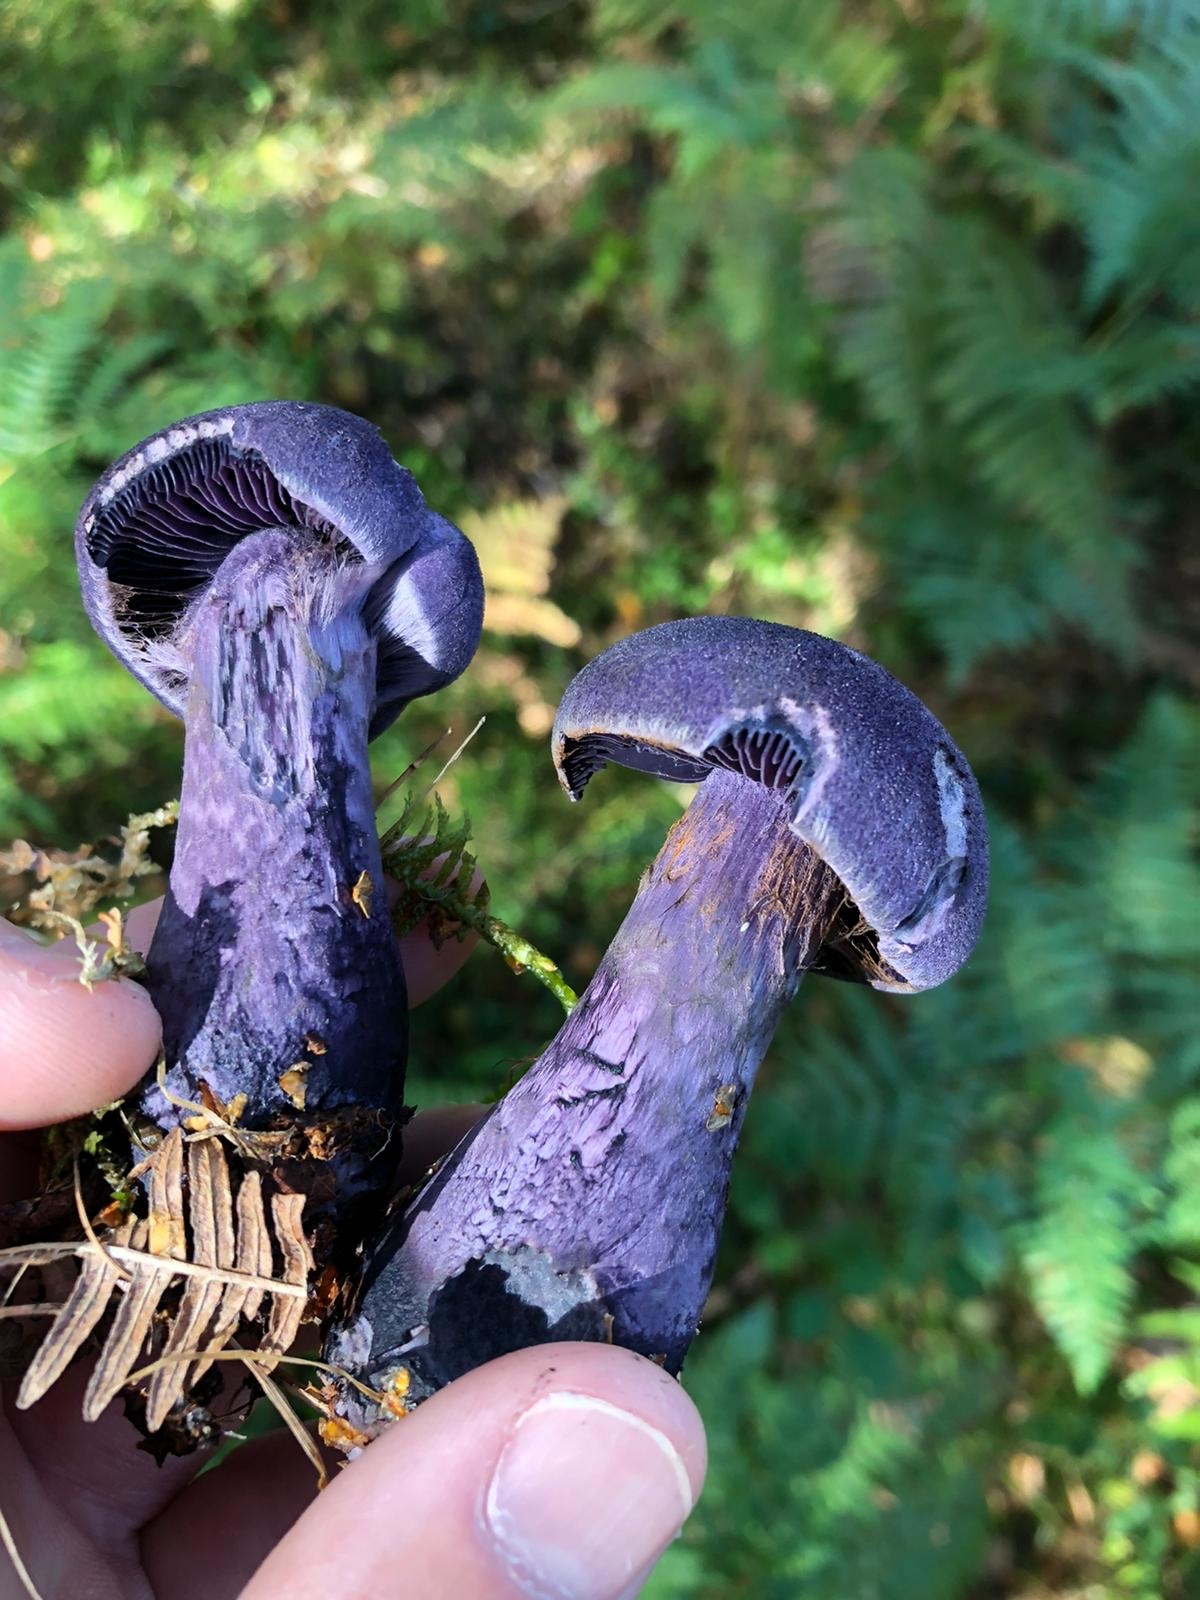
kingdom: Fungi
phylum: Basidiomycota
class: Agaricomycetes
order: Agaricales
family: Cortinariaceae
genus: Cortinarius
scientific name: Cortinarius violaceus
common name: Violet webcap
